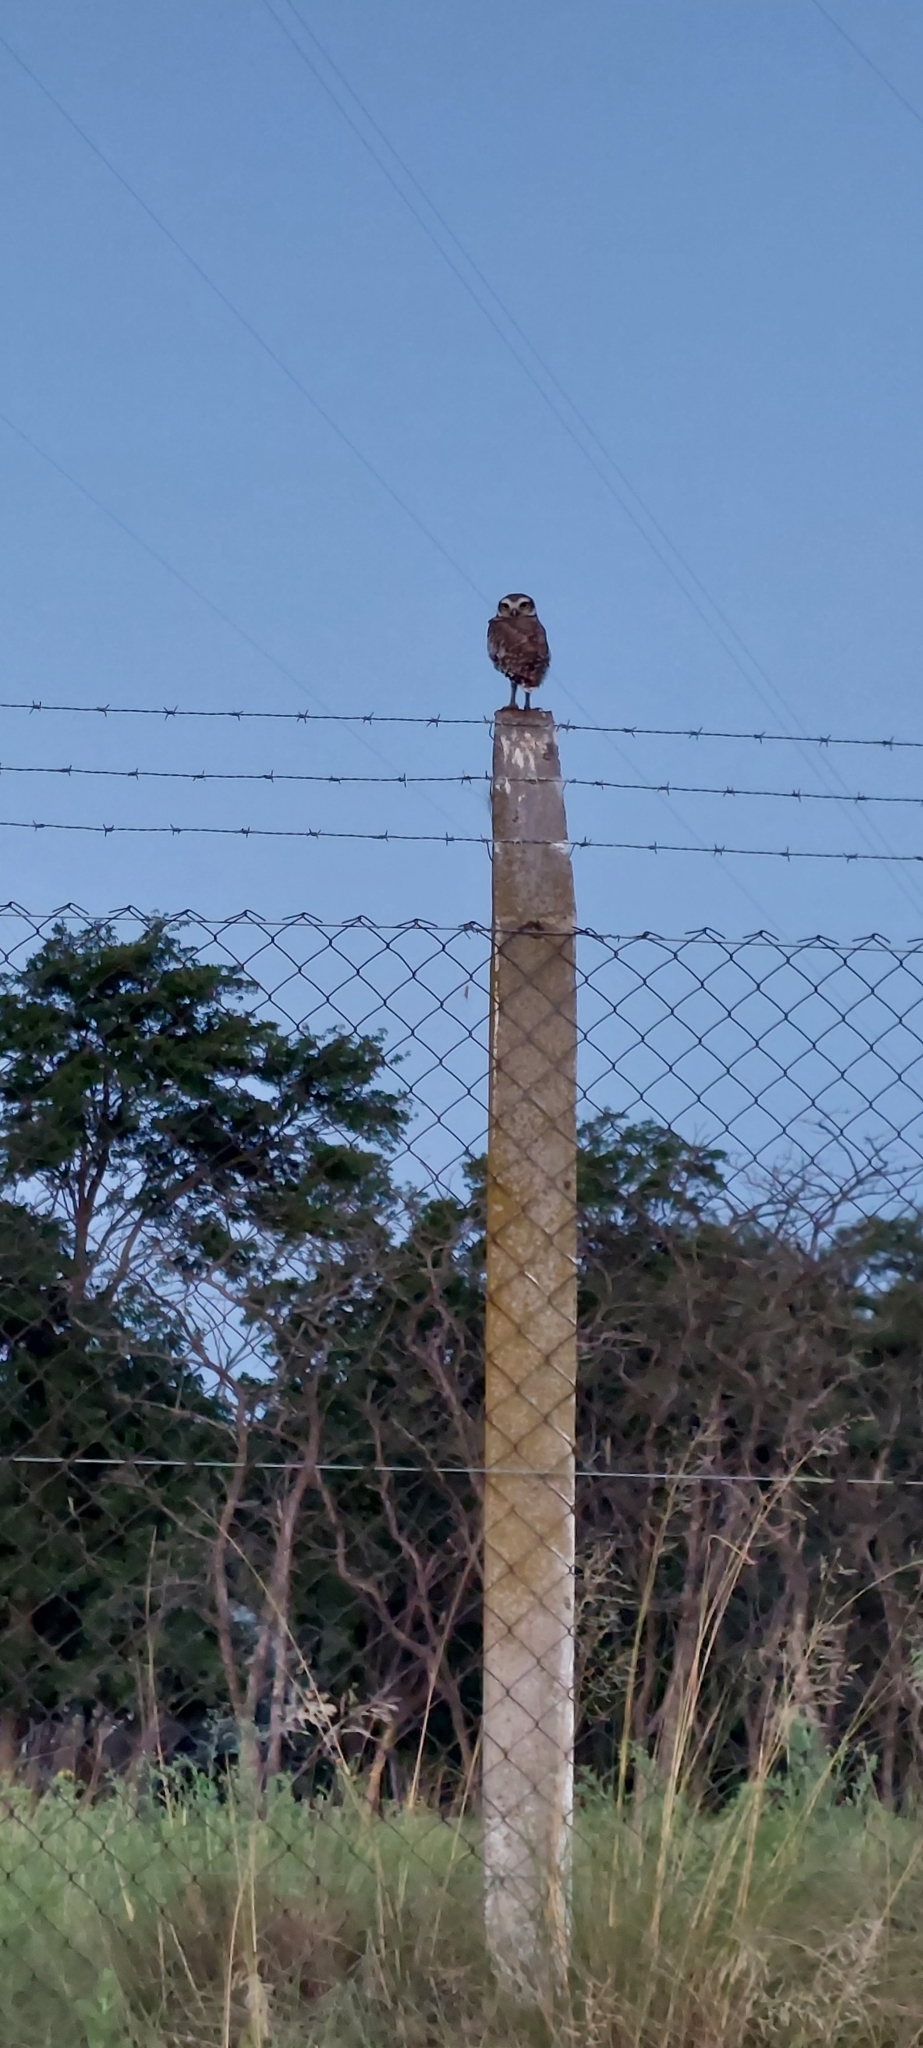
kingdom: Animalia
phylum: Chordata
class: Aves
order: Strigiformes
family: Strigidae
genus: Athene
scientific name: Athene cunicularia
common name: Burrowing owl
